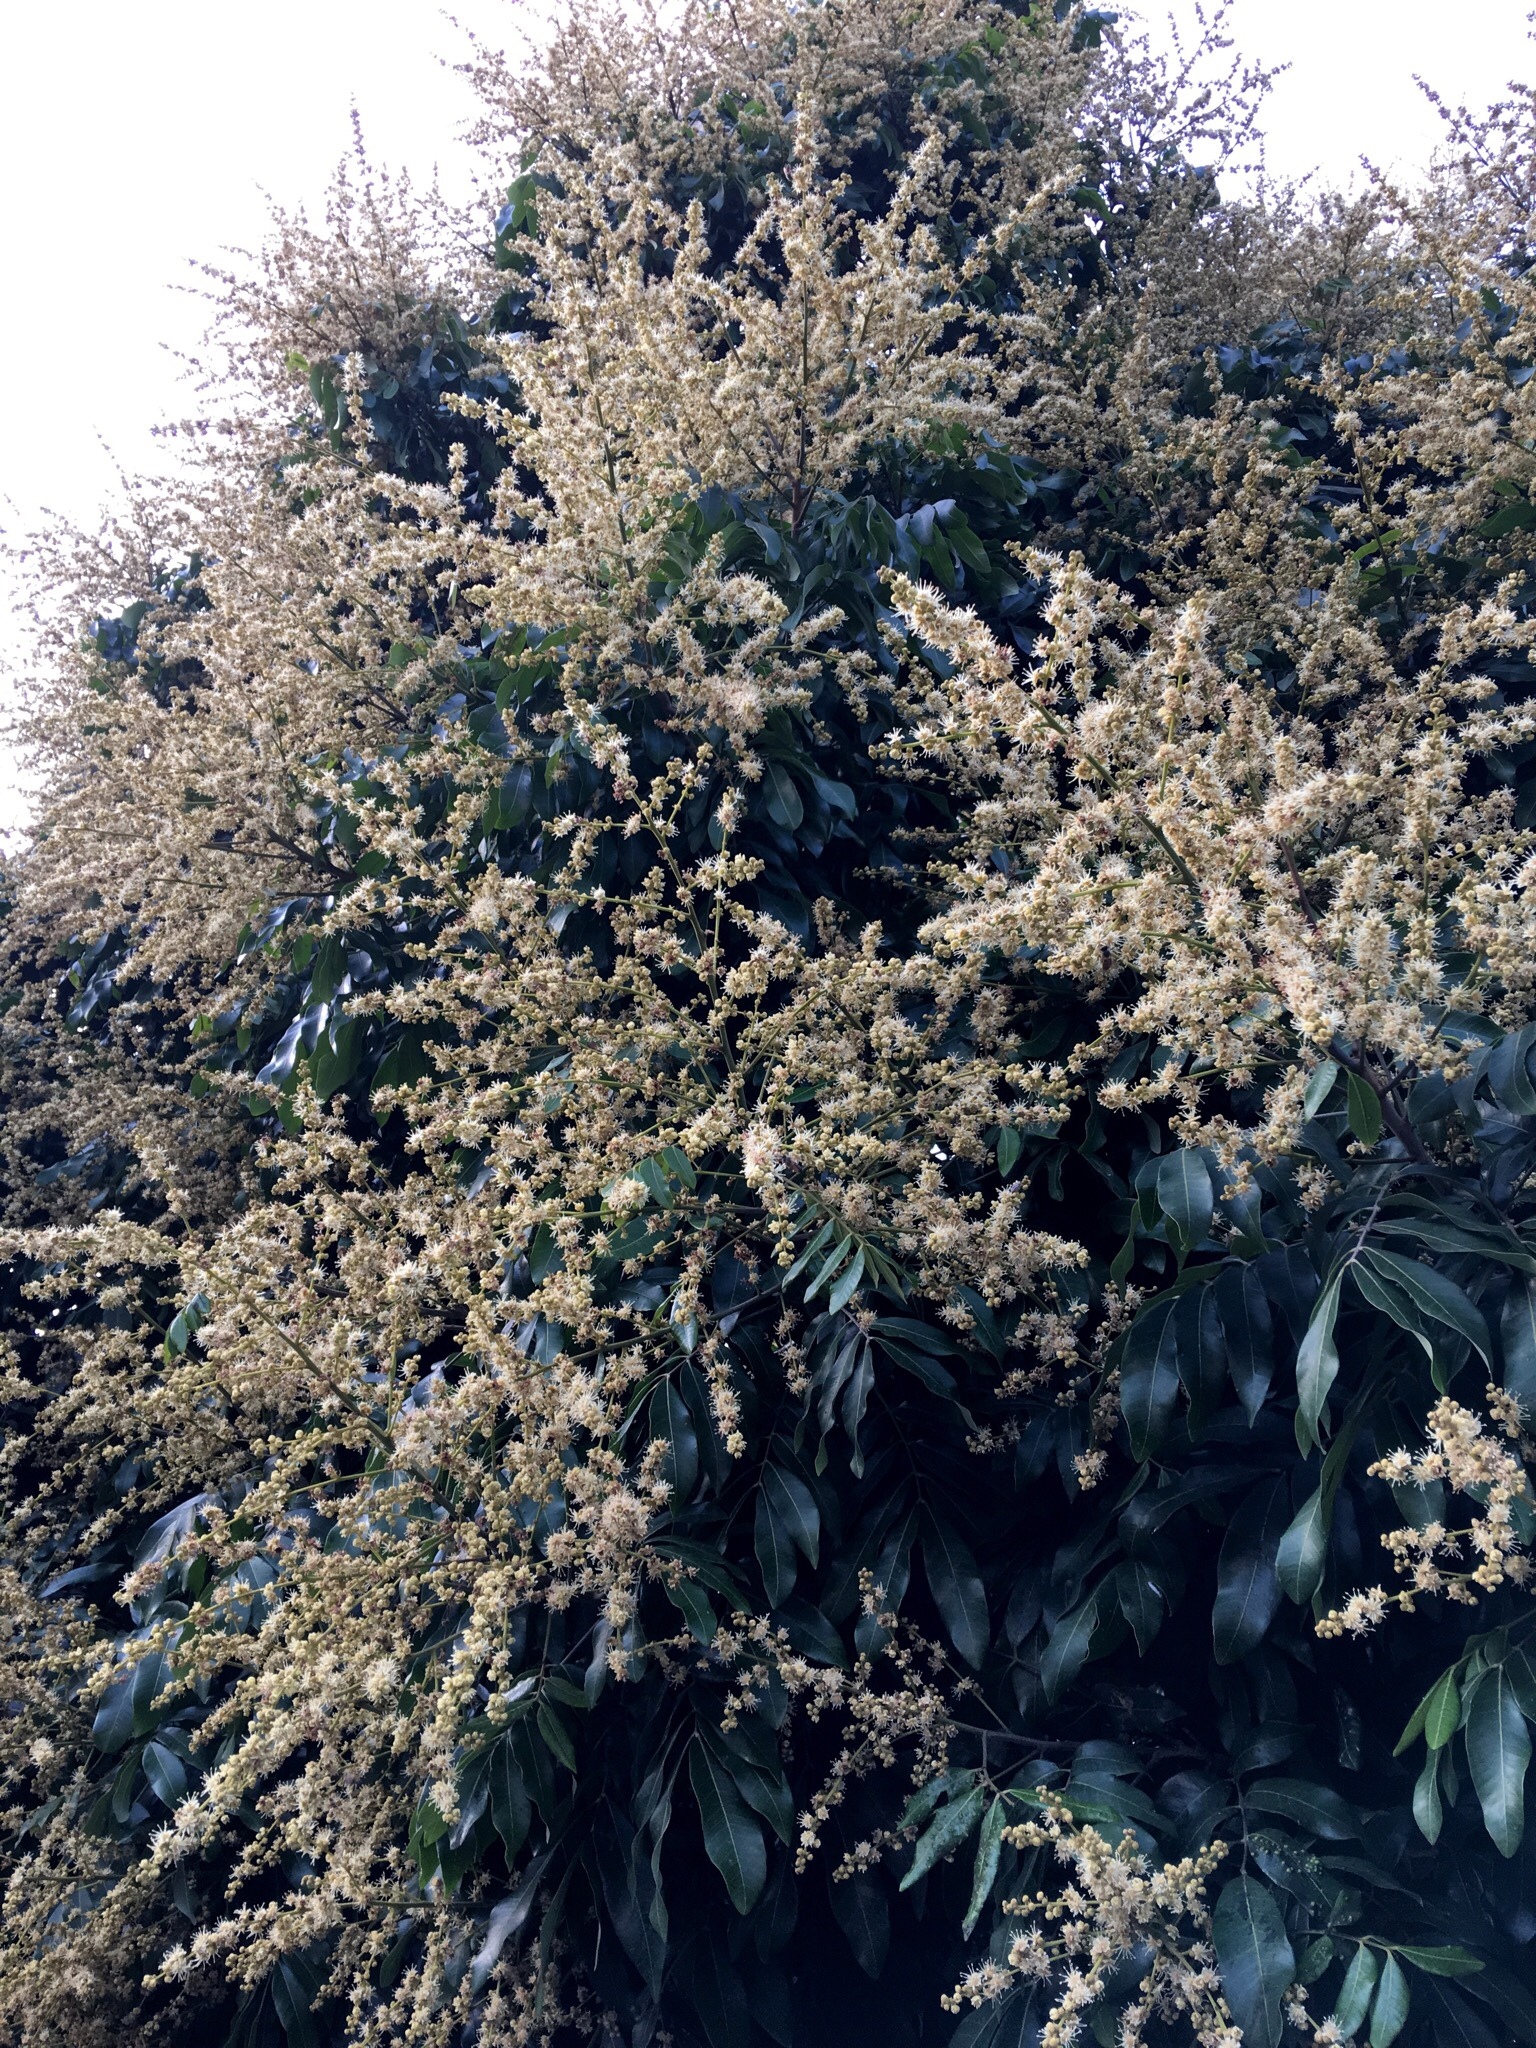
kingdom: Plantae
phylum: Tracheophyta
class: Magnoliopsida
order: Sapindales
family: Sapindaceae
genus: Dimocarpus
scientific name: Dimocarpus longan
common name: Longan
